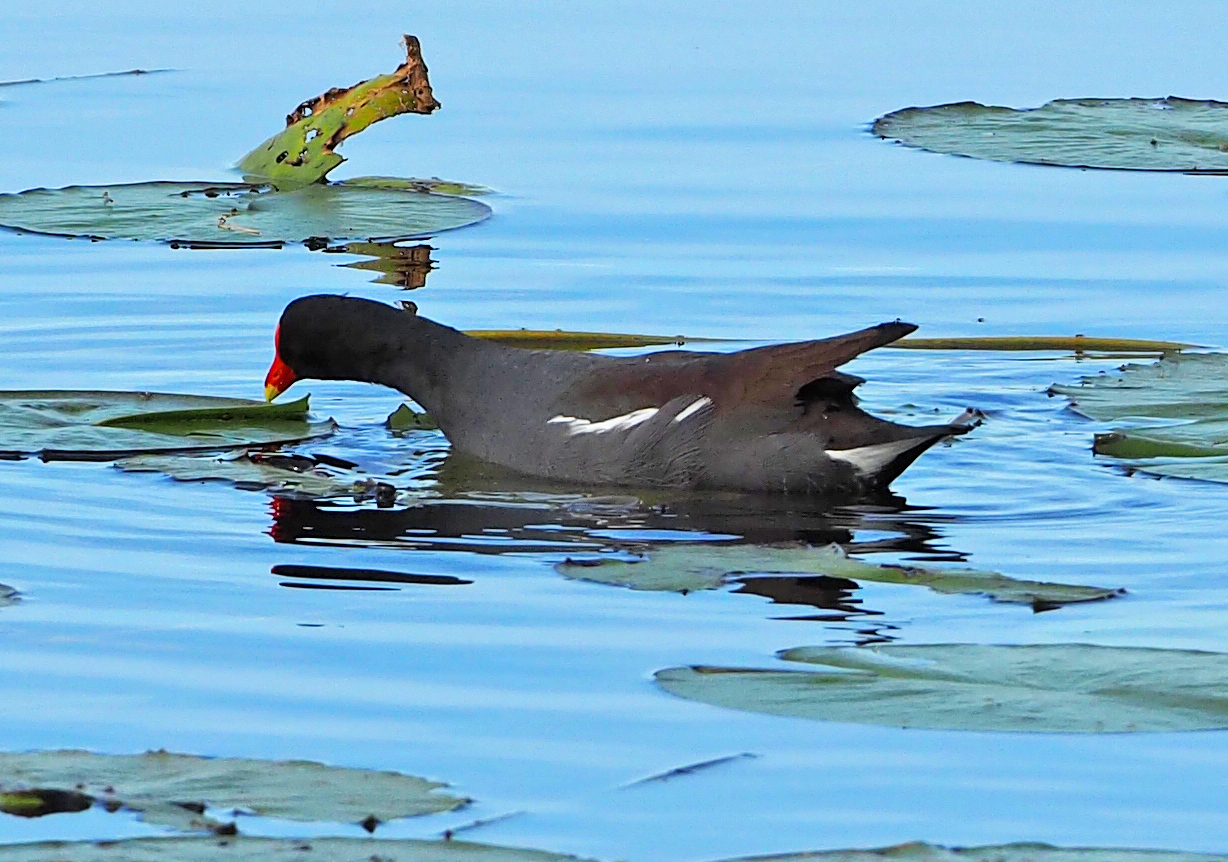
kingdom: Animalia
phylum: Chordata
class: Aves
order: Gruiformes
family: Rallidae
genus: Gallinula
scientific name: Gallinula chloropus
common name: Common moorhen
